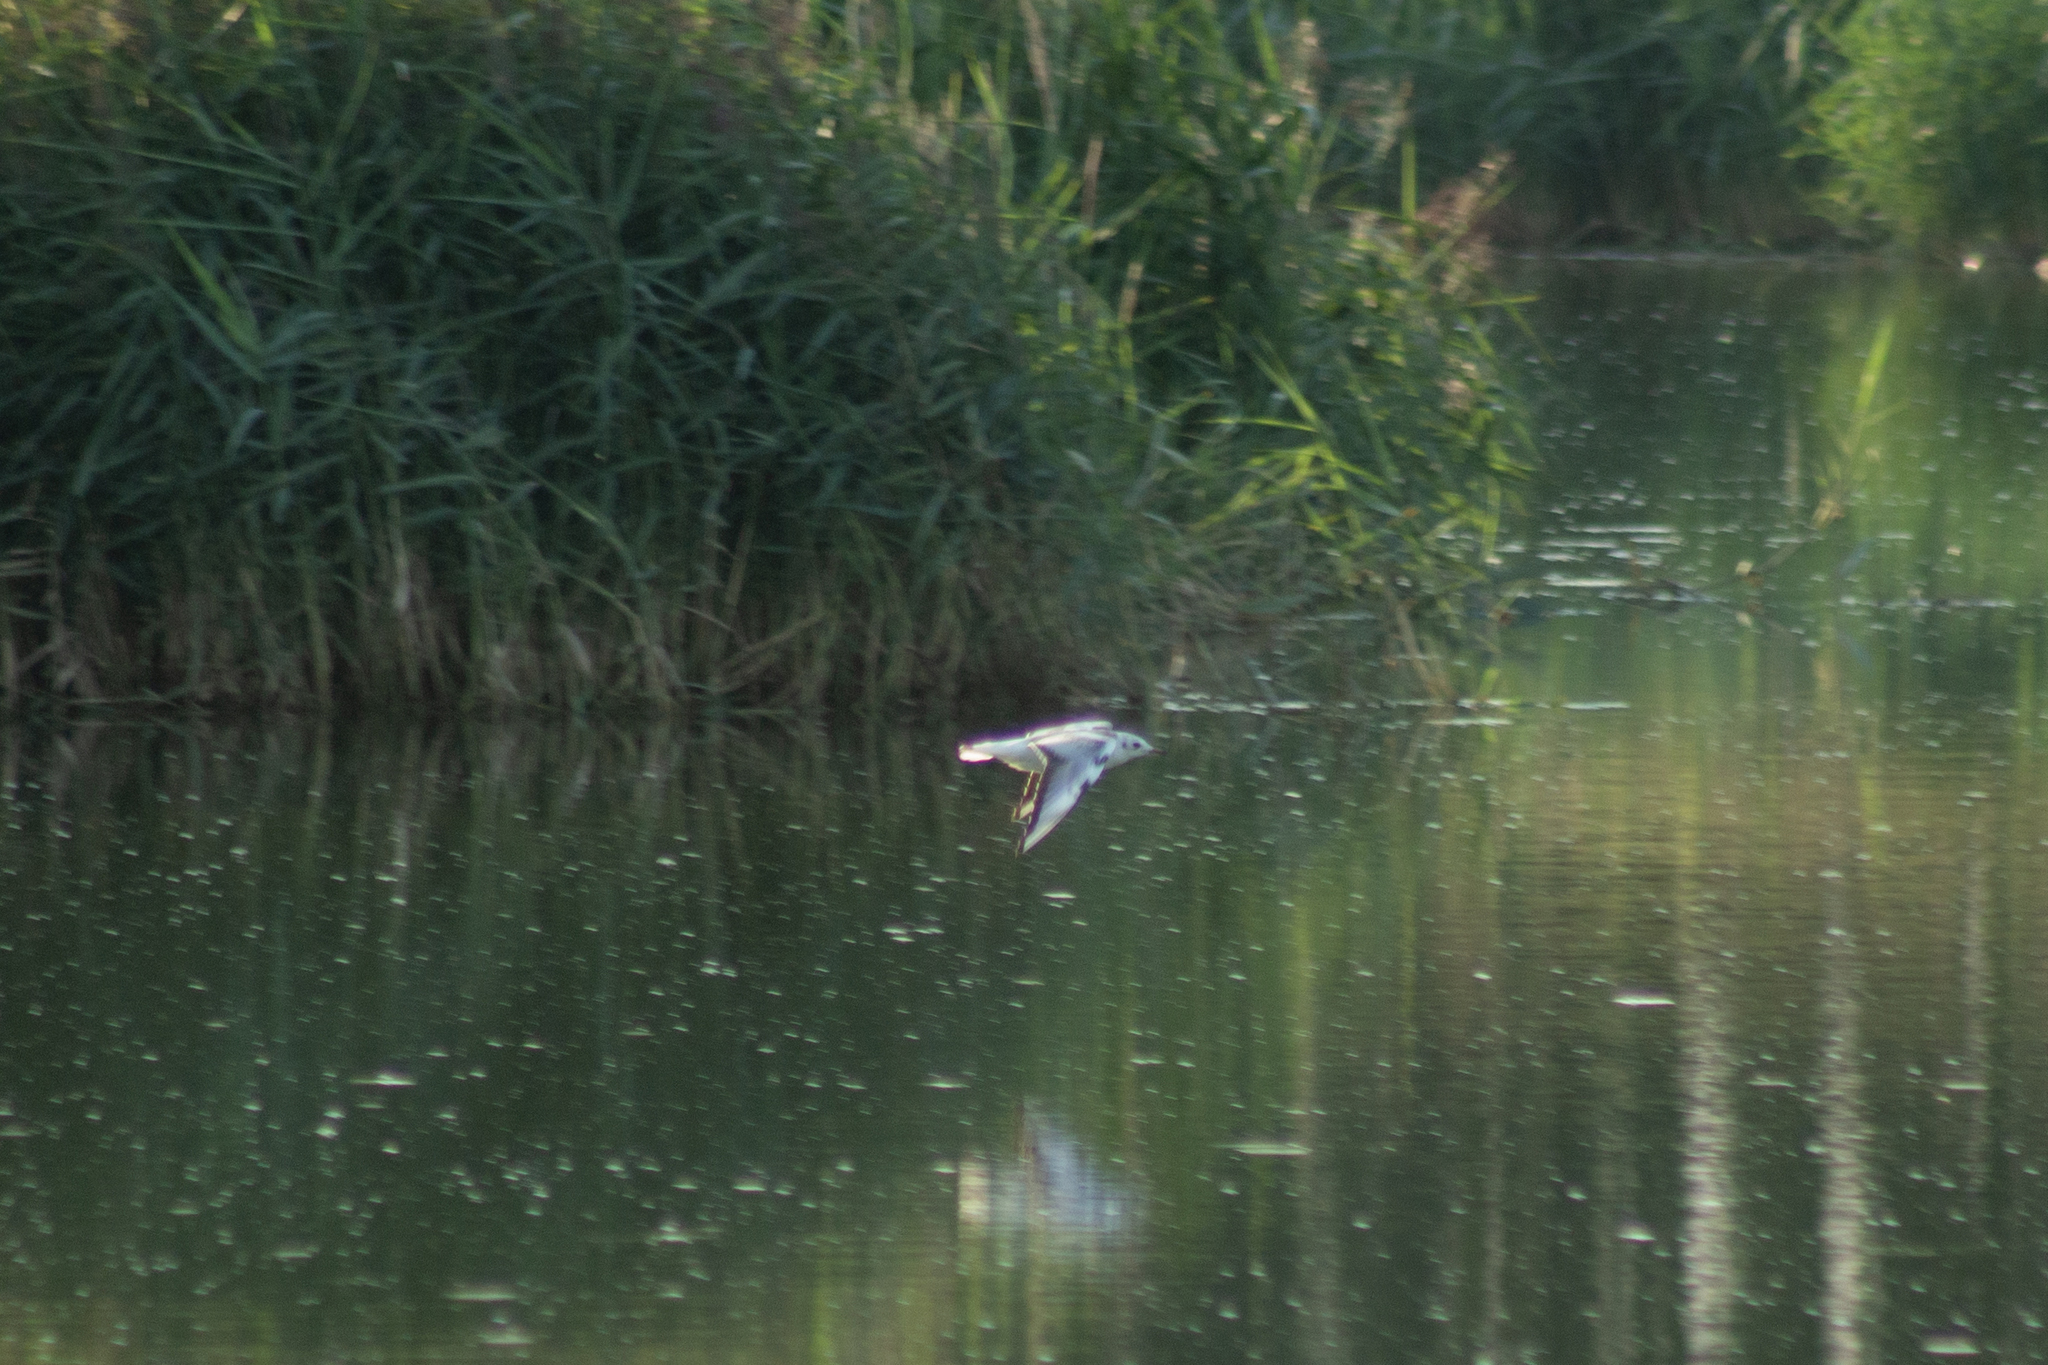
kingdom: Animalia
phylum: Chordata
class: Aves
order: Charadriiformes
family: Laridae
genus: Chroicocephalus
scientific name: Chroicocephalus ridibundus
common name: Black-headed gull
